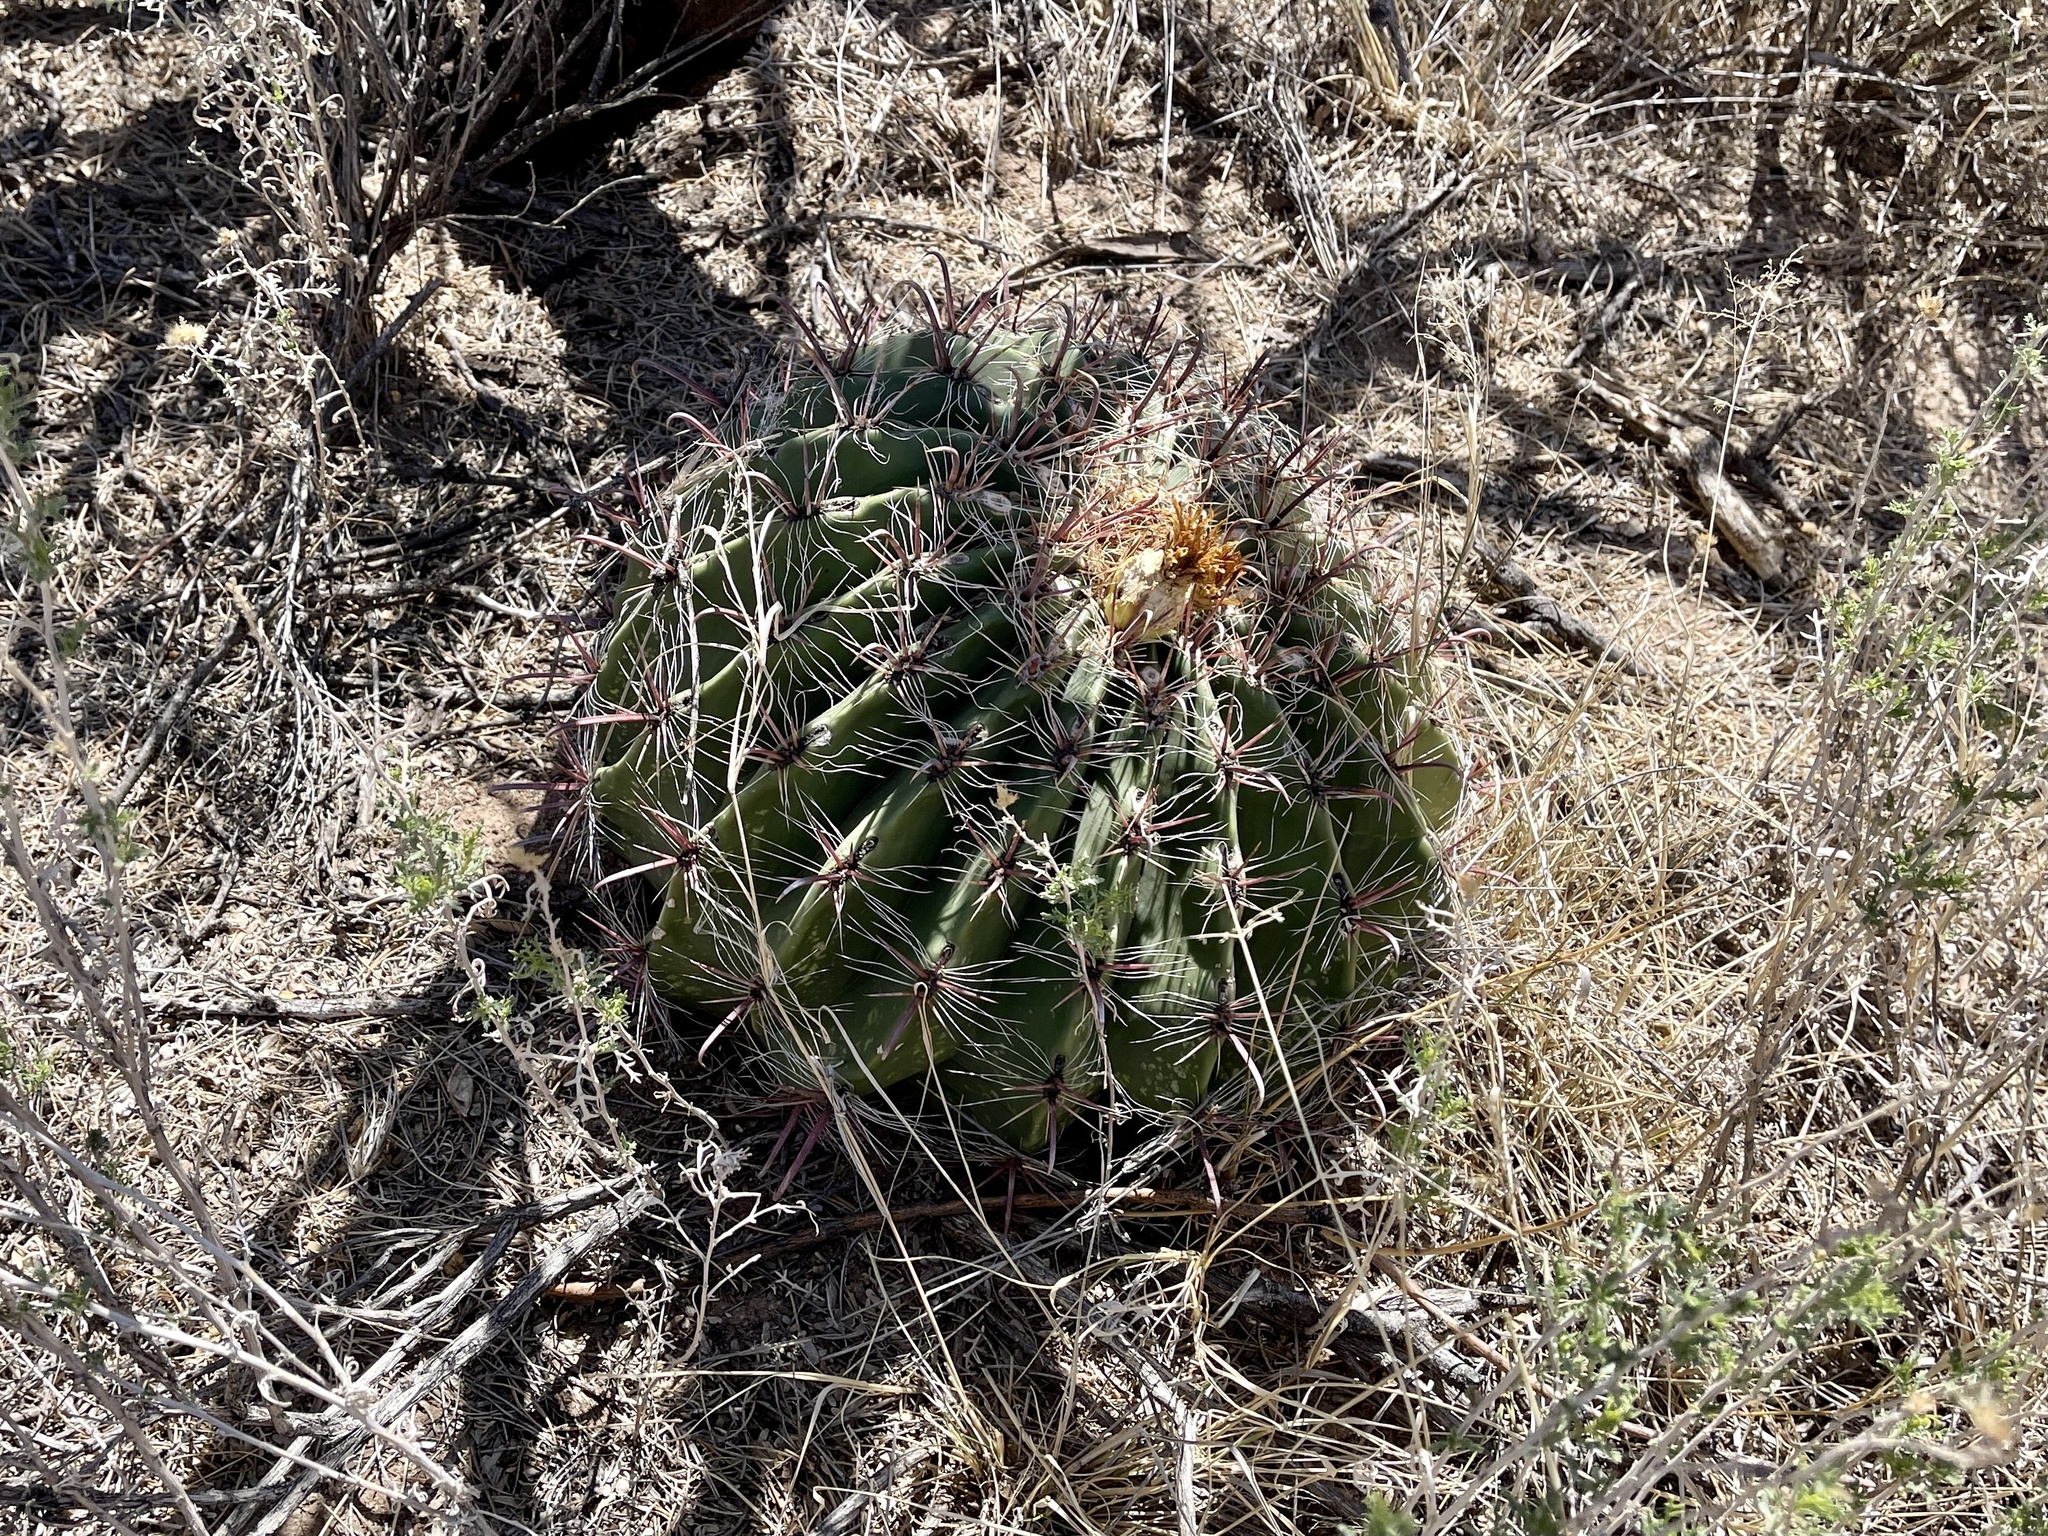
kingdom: Plantae
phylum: Tracheophyta
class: Magnoliopsida
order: Caryophyllales
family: Cactaceae
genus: Ferocactus
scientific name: Ferocactus wislizeni
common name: Candy barrel cactus
